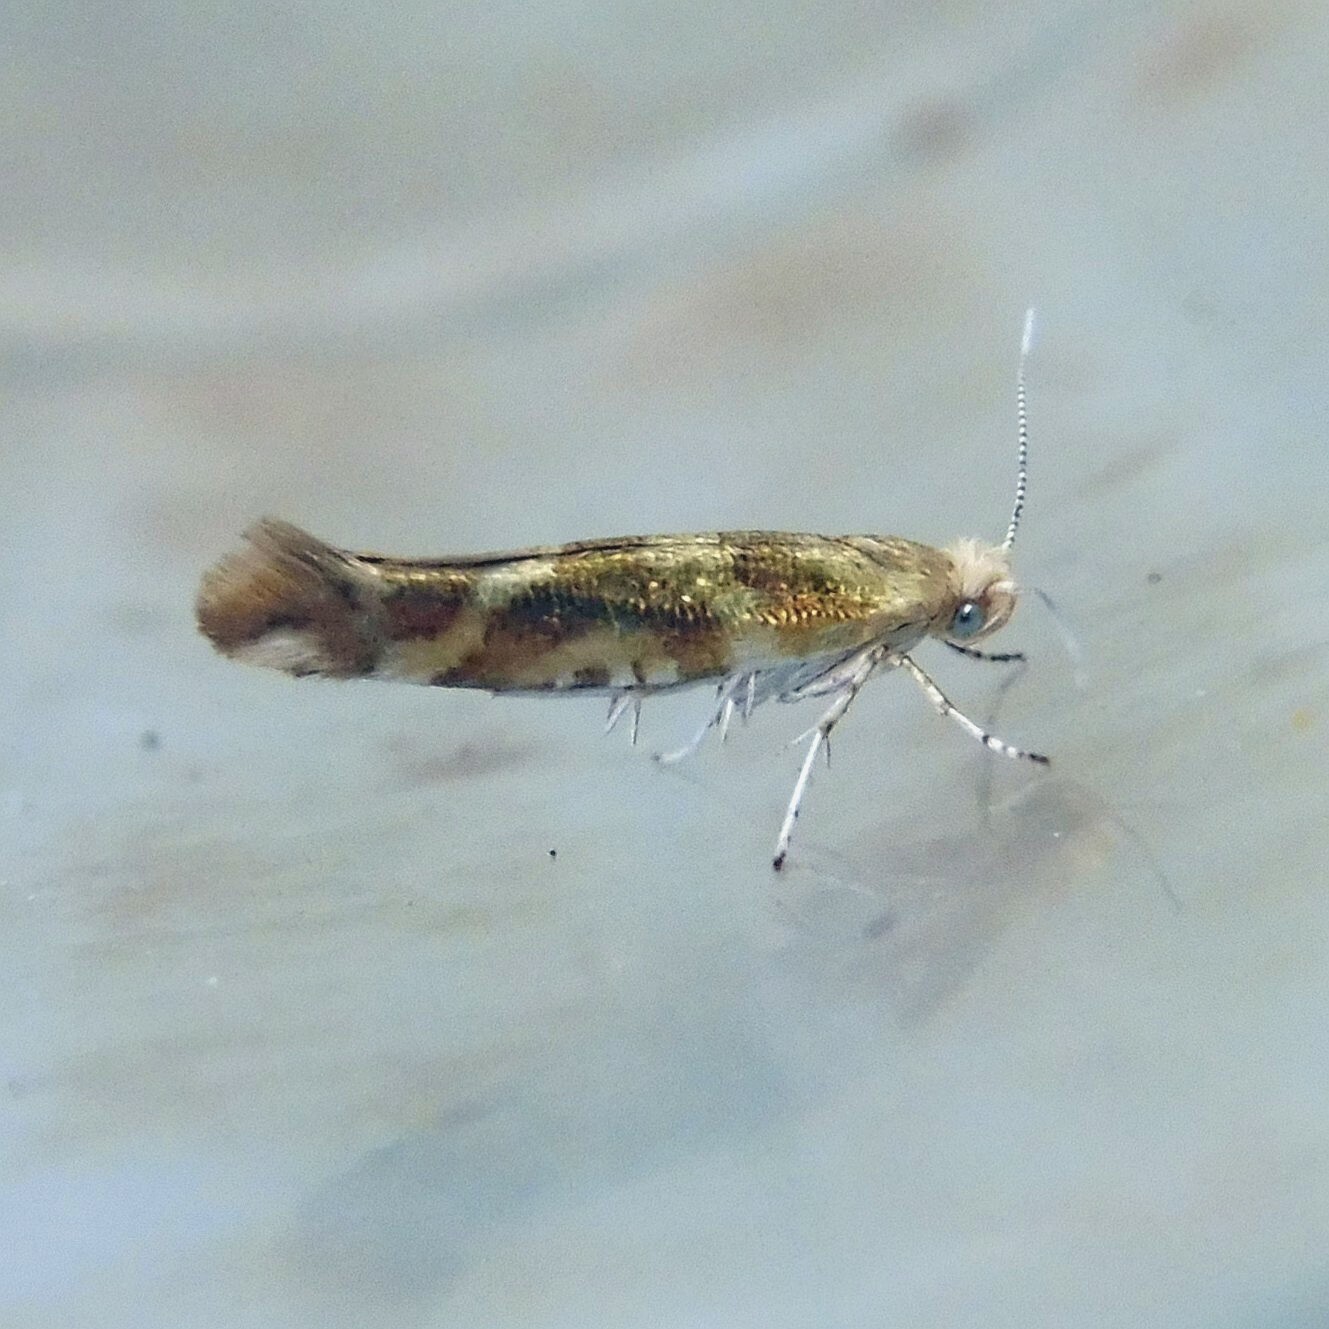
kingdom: Animalia
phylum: Arthropoda
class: Insecta
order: Lepidoptera
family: Argyresthiidae
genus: Argyresthia
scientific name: Argyresthia goedartella
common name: Golden argent
